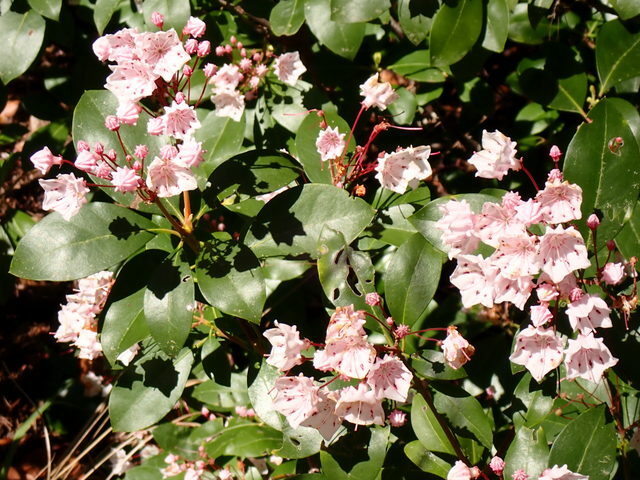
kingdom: Plantae
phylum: Tracheophyta
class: Magnoliopsida
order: Ericales
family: Ericaceae
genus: Kalmia
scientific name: Kalmia latifolia
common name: Mountain-laurel
